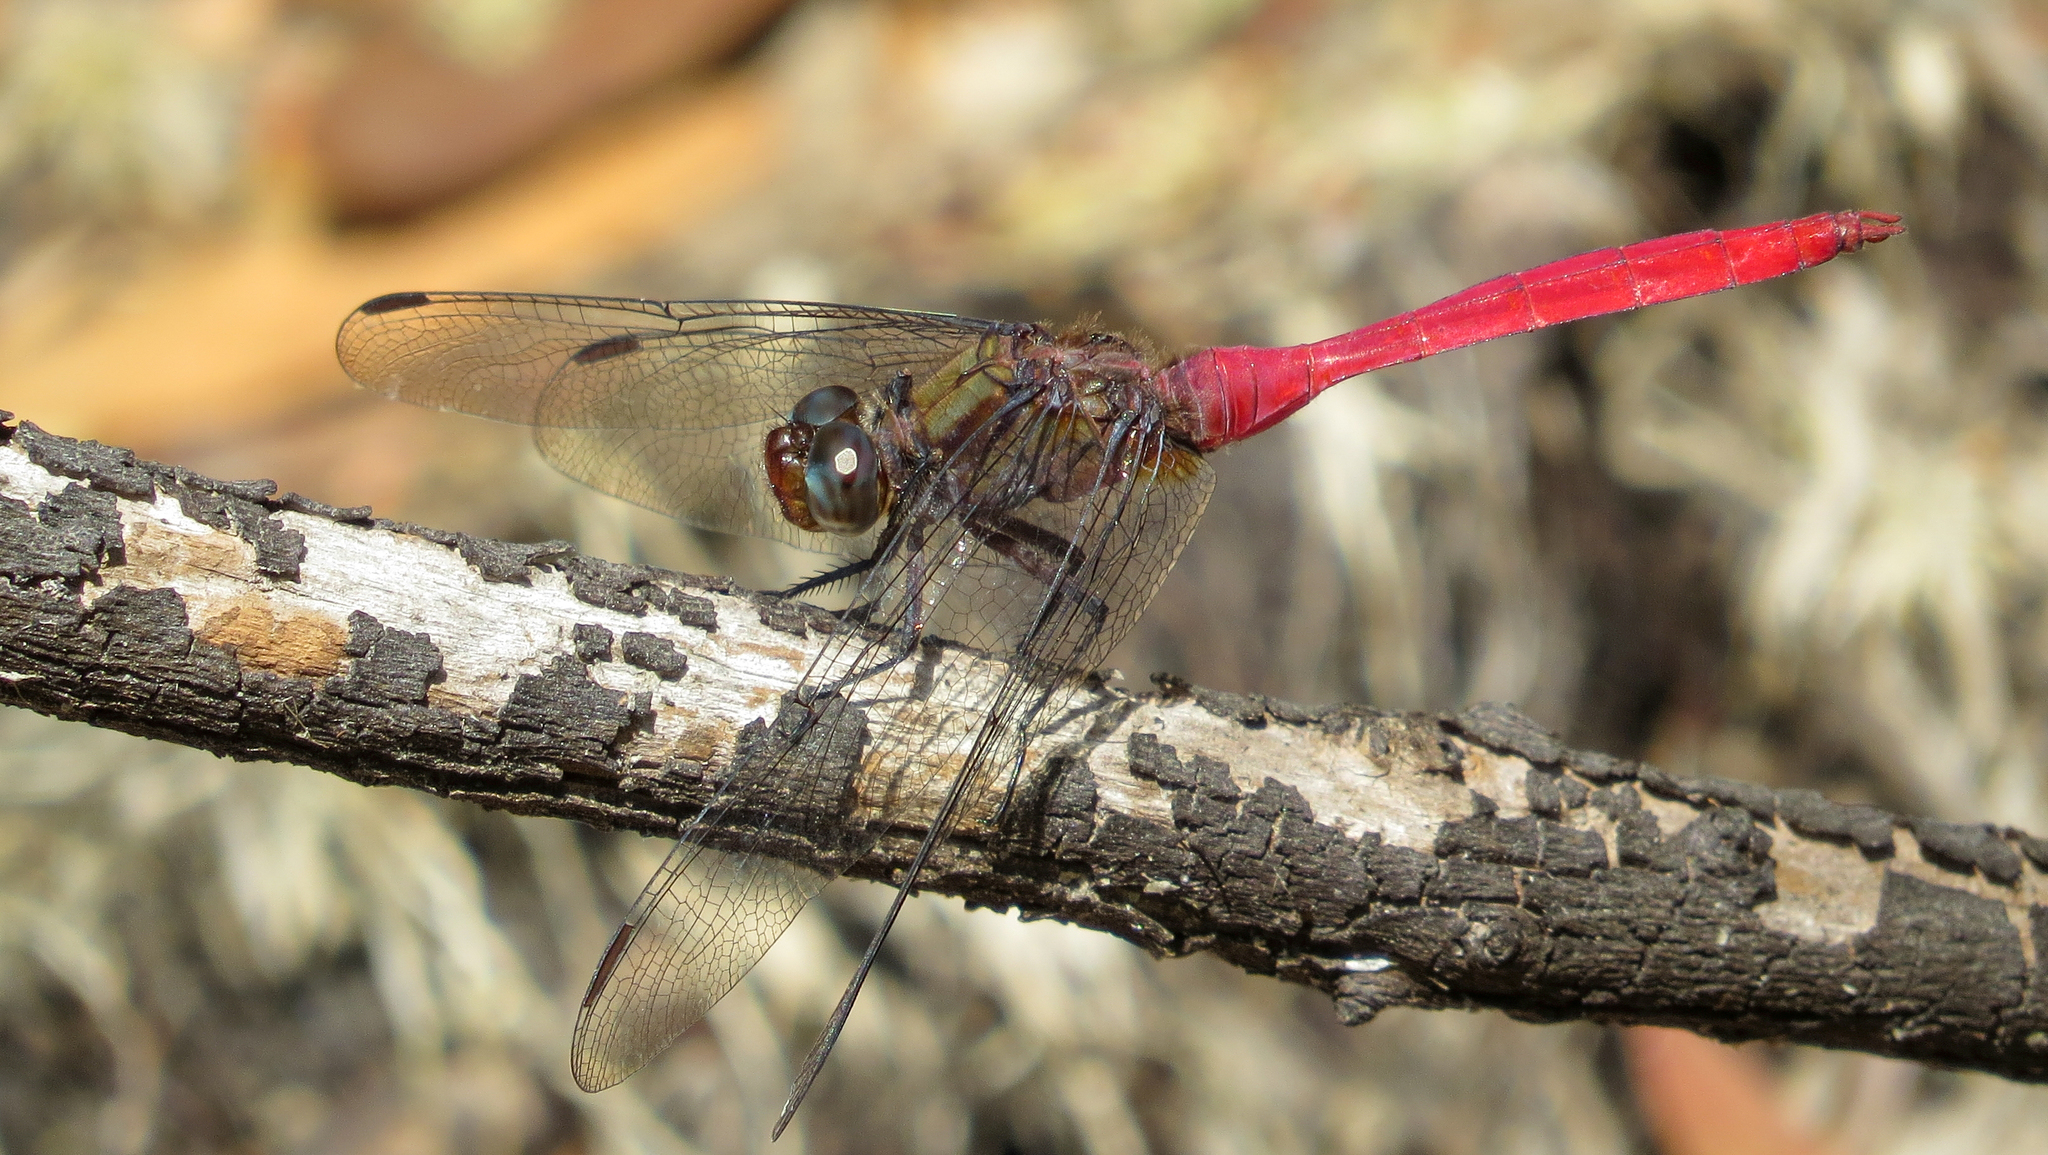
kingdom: Animalia
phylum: Arthropoda
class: Insecta
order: Odonata
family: Libellulidae
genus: Orthetrum
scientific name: Orthetrum villosovittatum
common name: Firery skimmer
